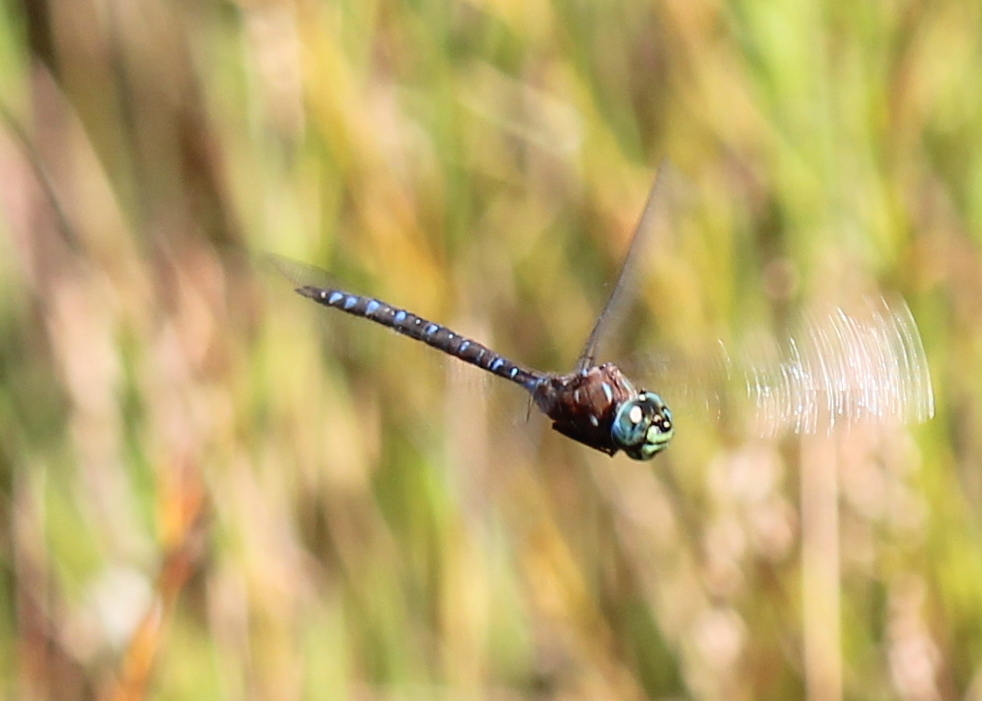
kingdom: Animalia
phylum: Arthropoda
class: Insecta
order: Odonata
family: Aeshnidae
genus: Aeshna
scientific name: Aeshna interrupta
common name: Variable darner
